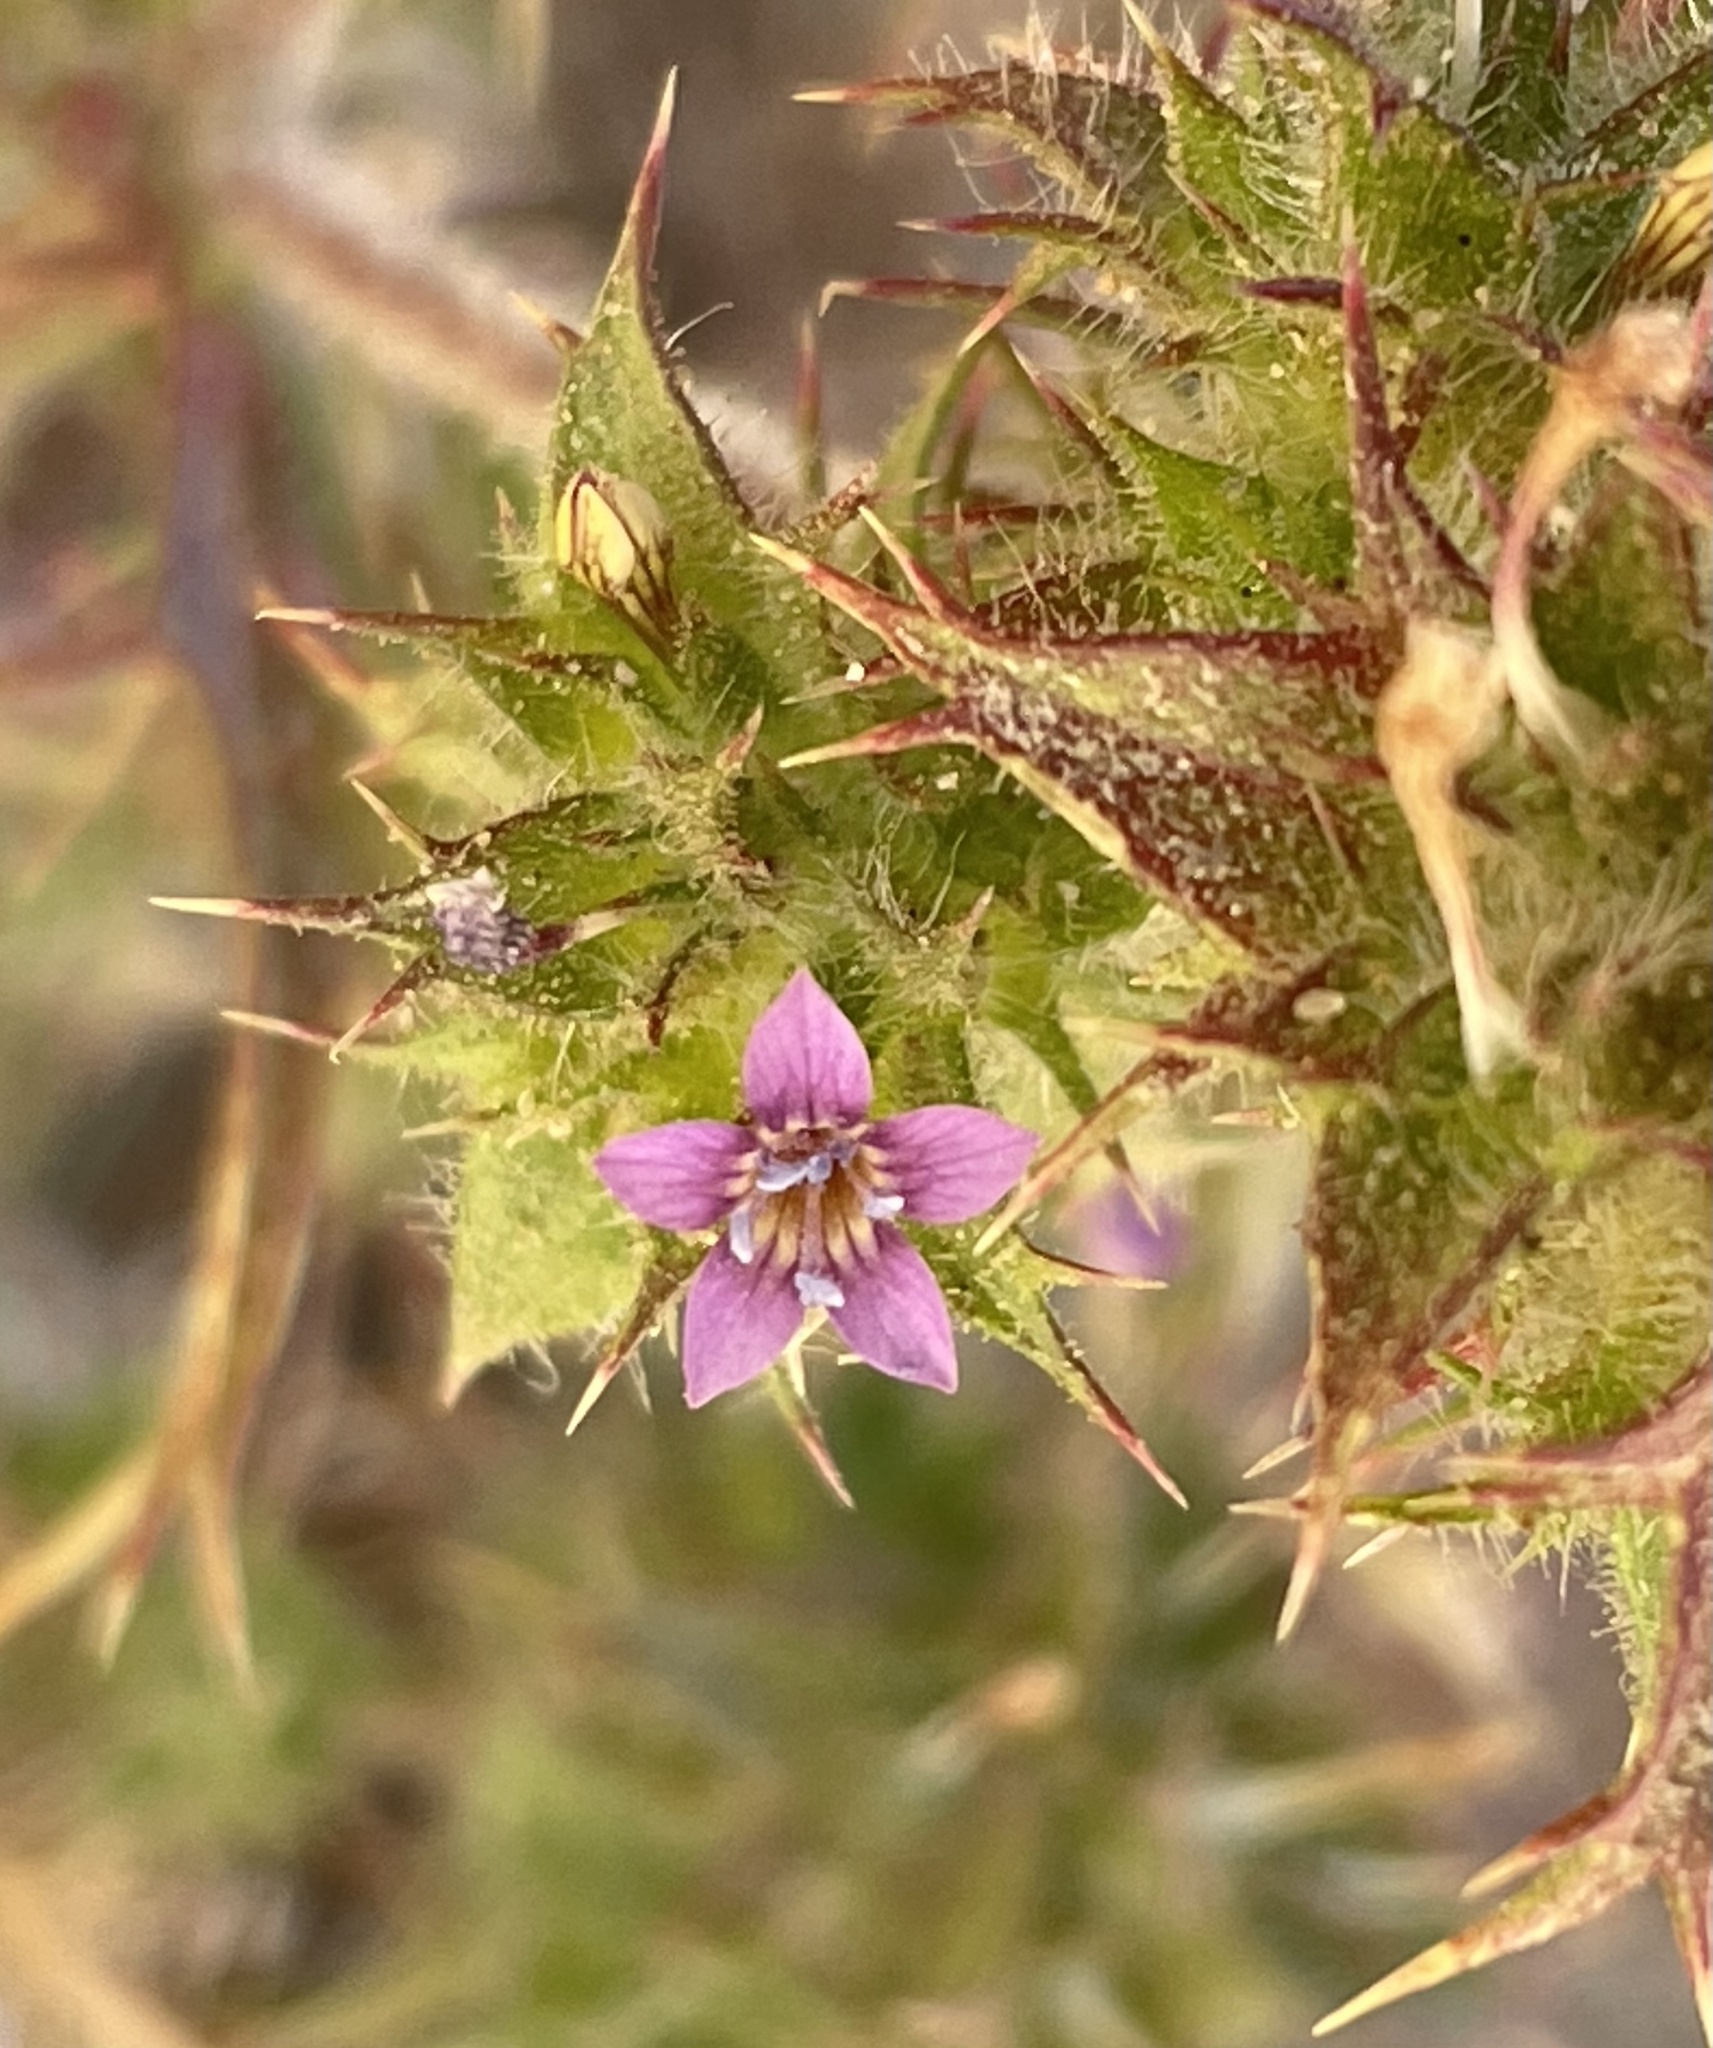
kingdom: Plantae
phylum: Tracheophyta
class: Magnoliopsida
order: Ericales
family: Polemoniaceae
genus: Navarretia
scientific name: Navarretia atractyloides
